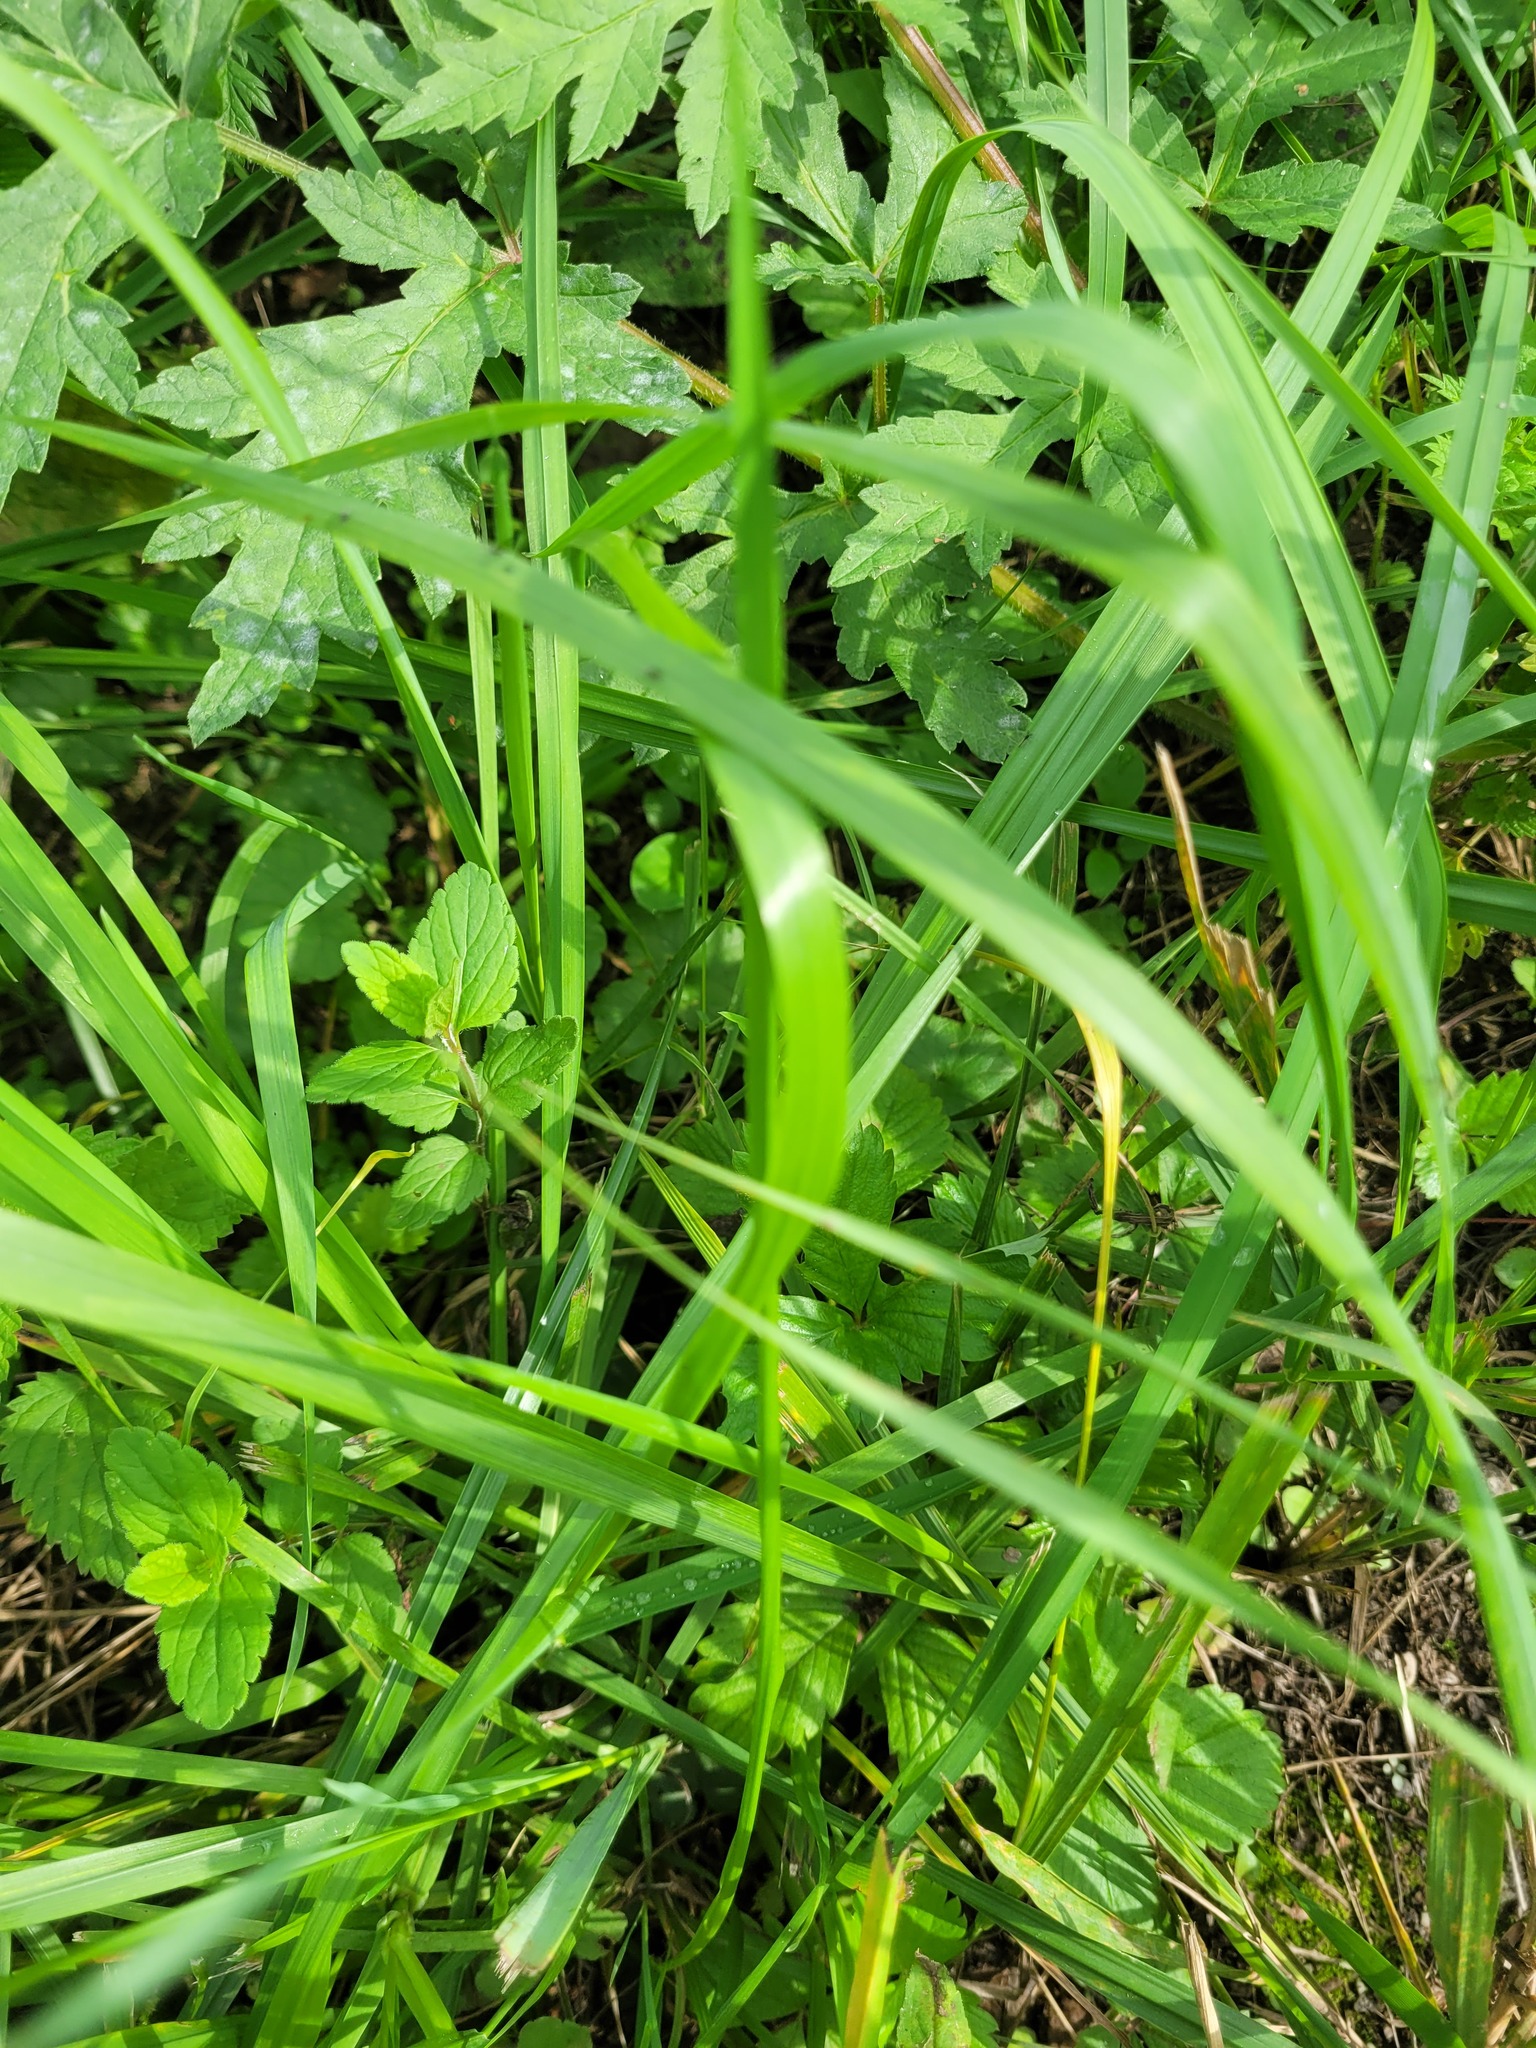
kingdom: Plantae
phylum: Tracheophyta
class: Magnoliopsida
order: Lamiales
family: Plantaginaceae
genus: Veronica
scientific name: Veronica chamaedrys
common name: Germander speedwell
